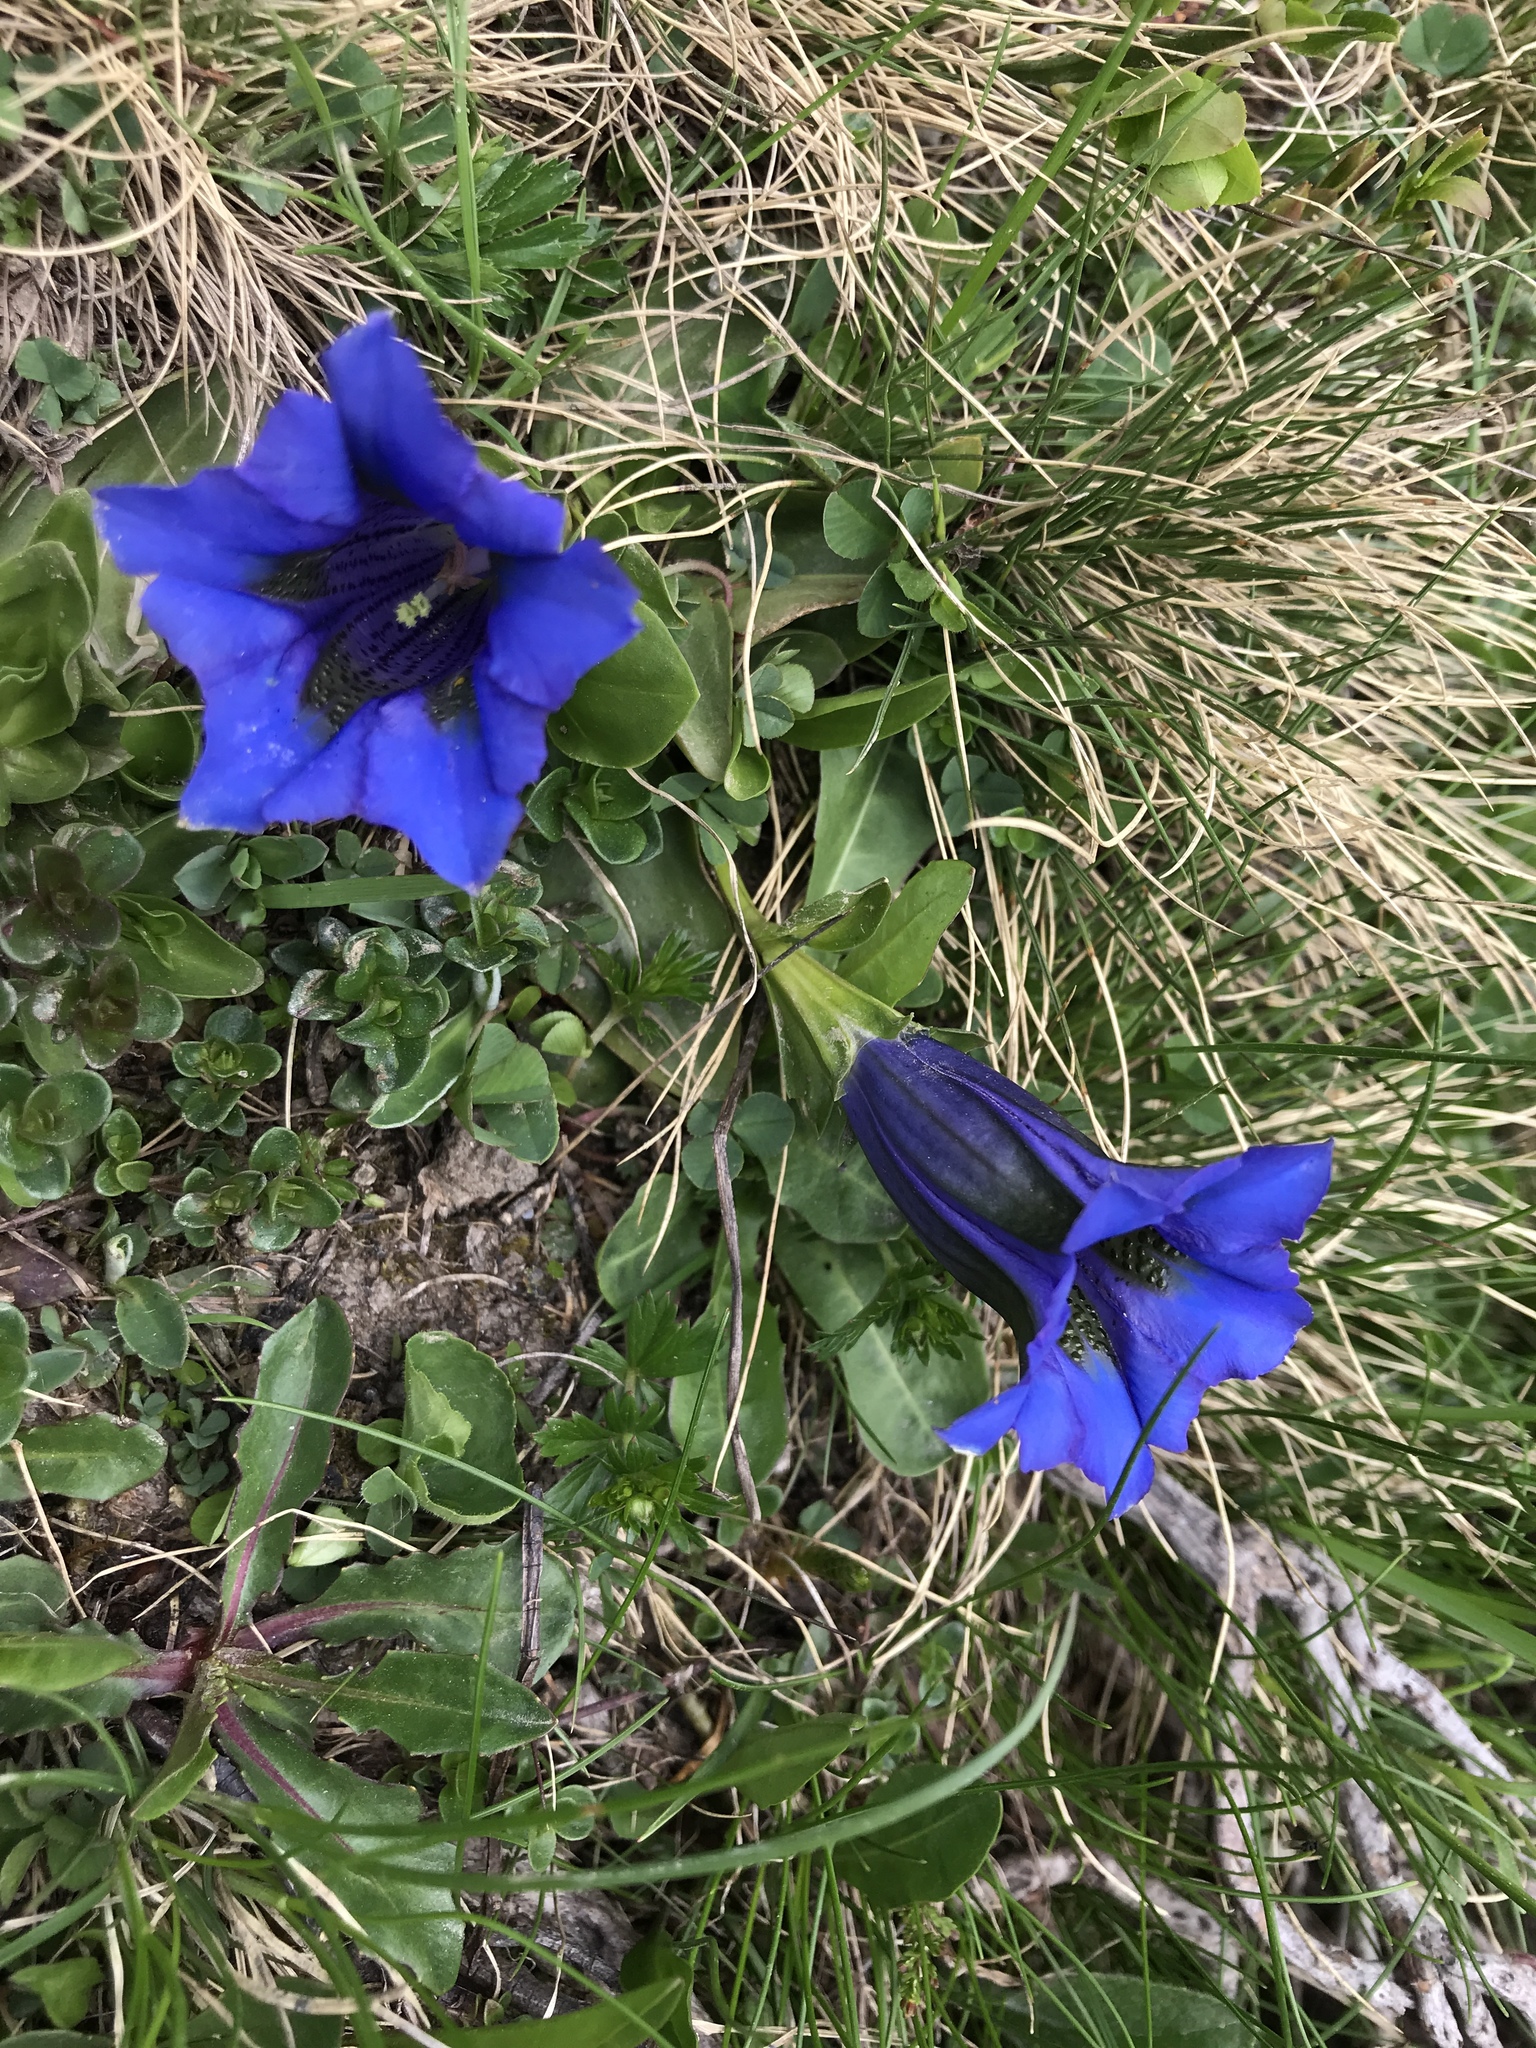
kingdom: Plantae
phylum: Tracheophyta
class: Magnoliopsida
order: Gentianales
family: Gentianaceae
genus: Gentiana
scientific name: Gentiana acaulis
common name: Trumpet gentian
